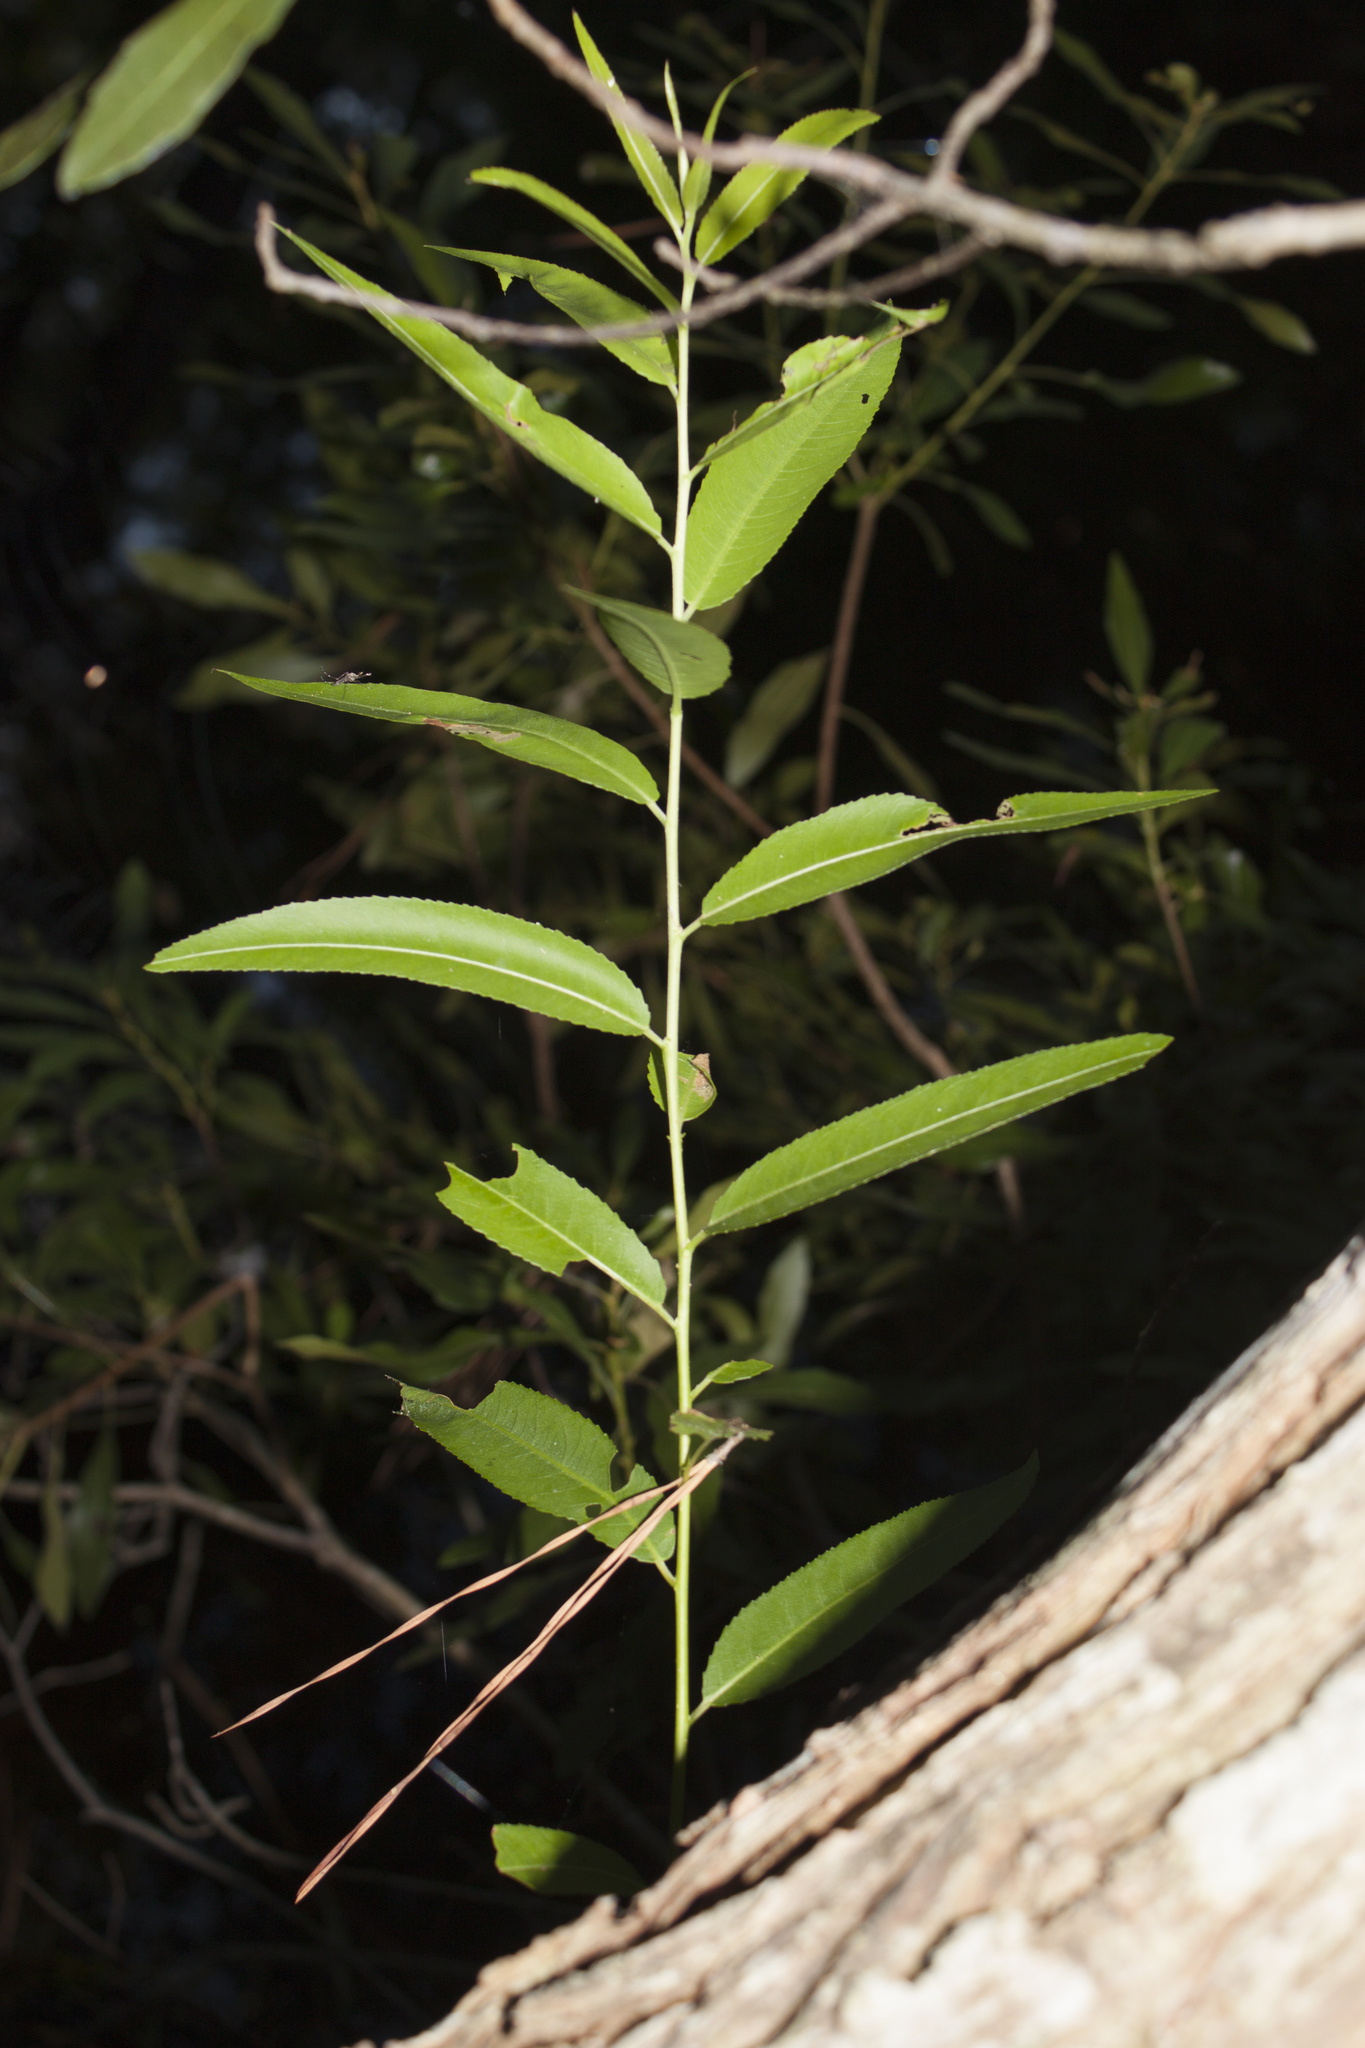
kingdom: Plantae
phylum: Tracheophyta
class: Magnoliopsida
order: Malpighiales
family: Salicaceae
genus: Salix
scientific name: Salix nigra
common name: Black willow
